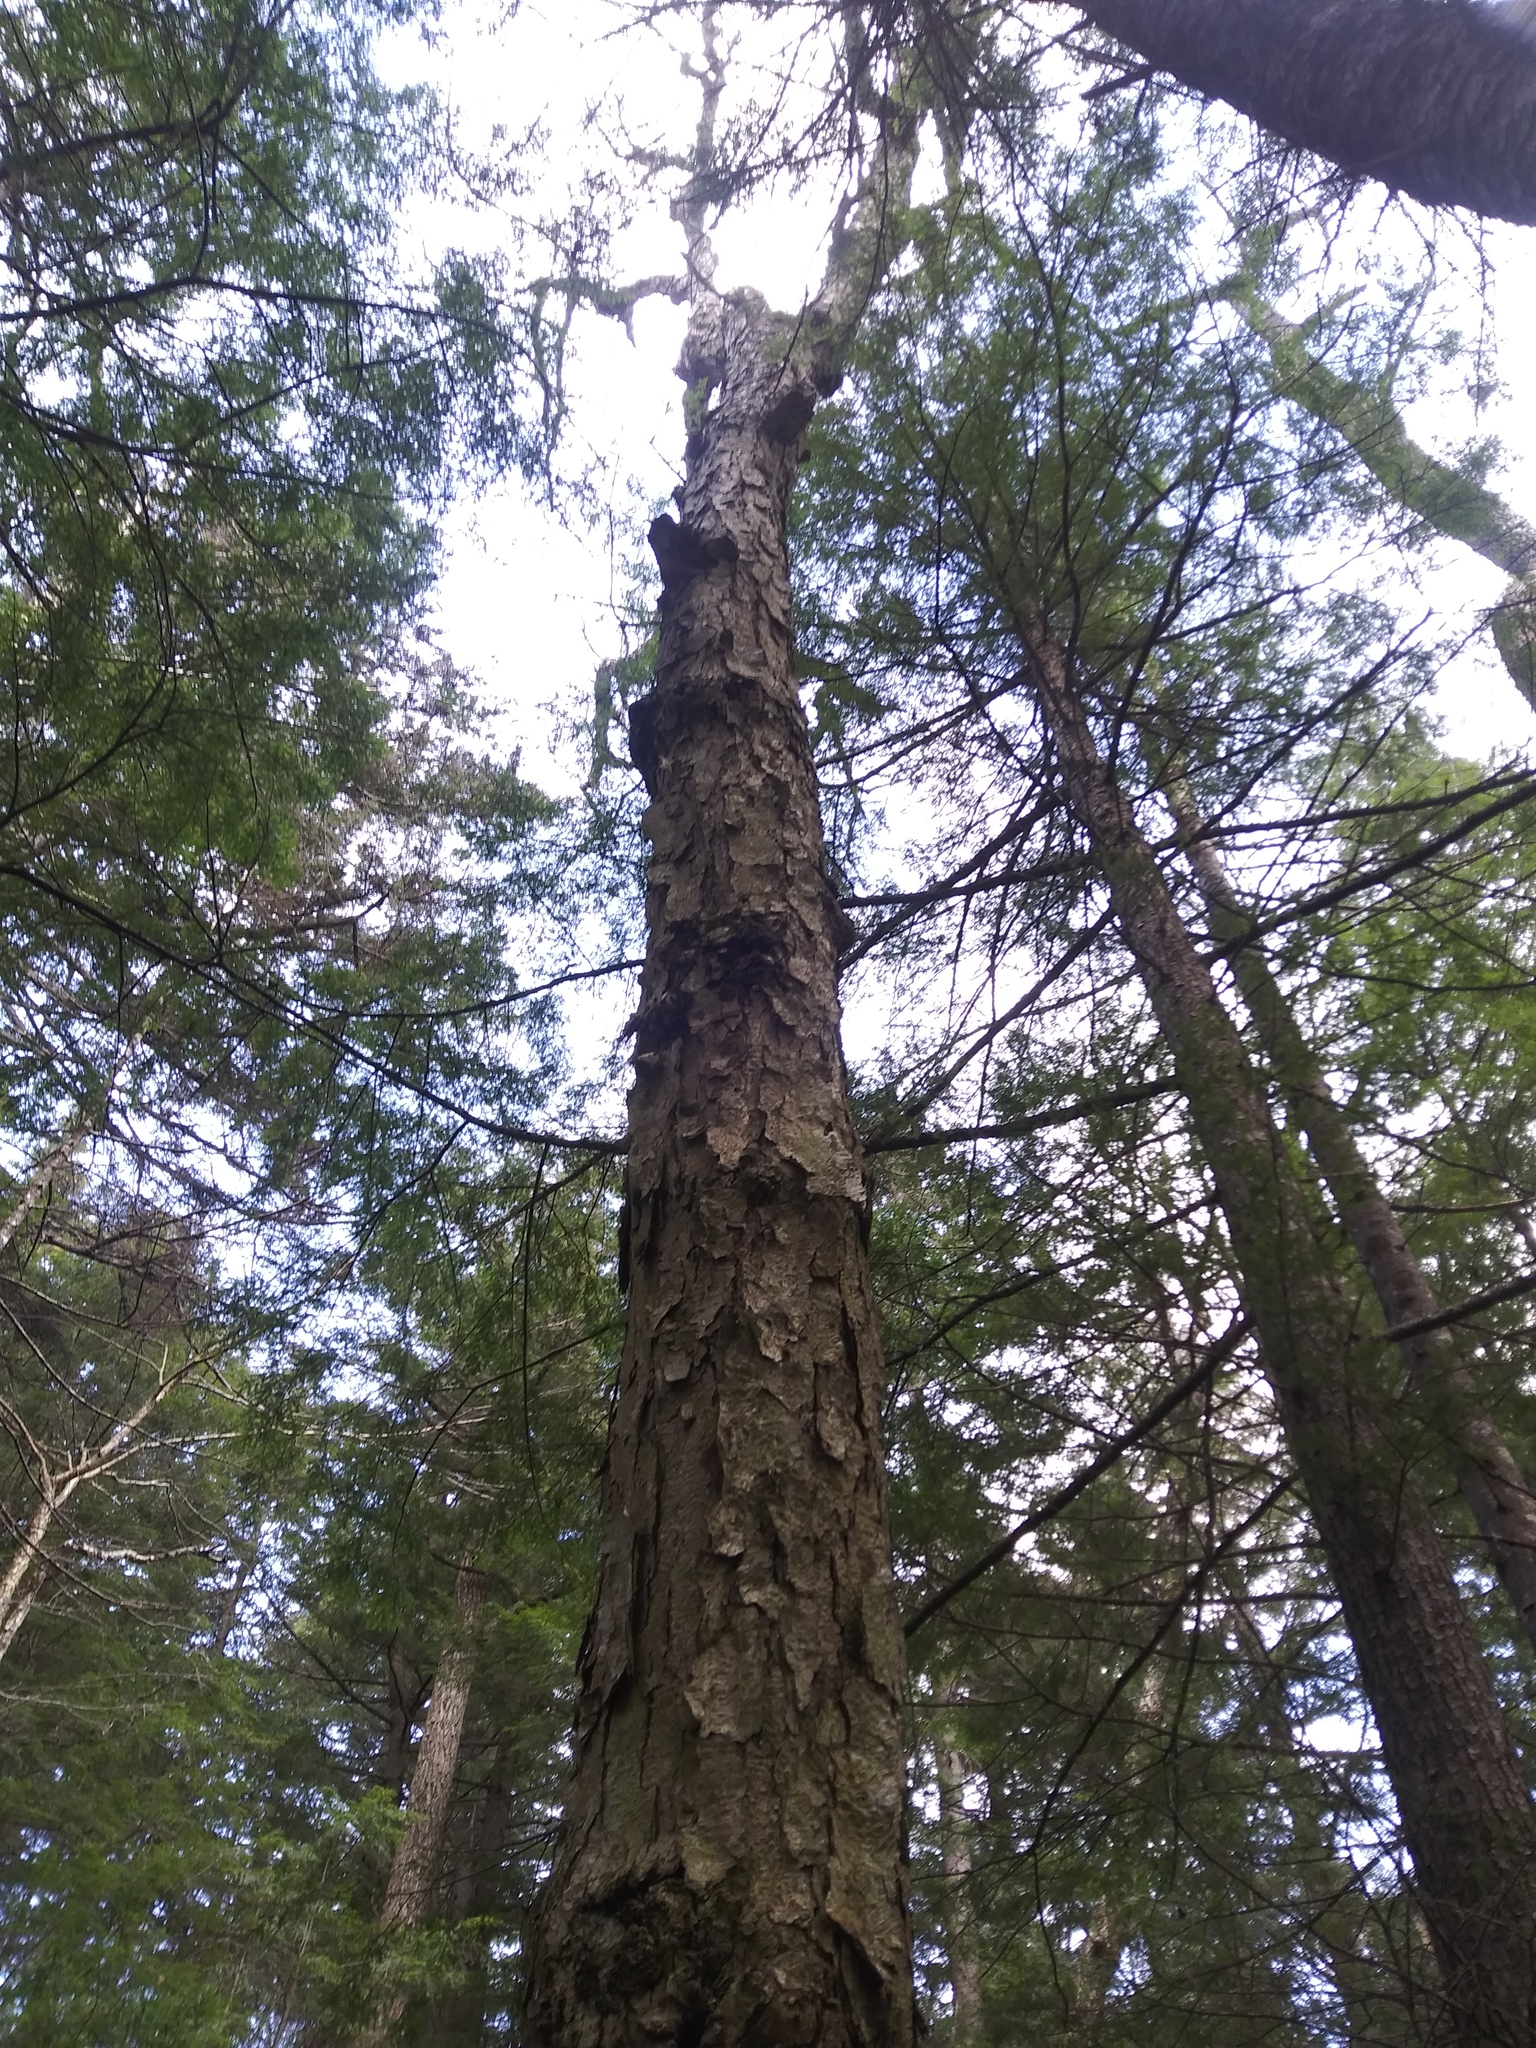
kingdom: Plantae
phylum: Tracheophyta
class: Magnoliopsida
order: Fagales
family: Betulaceae
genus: Betula
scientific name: Betula lenta
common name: Black birch
